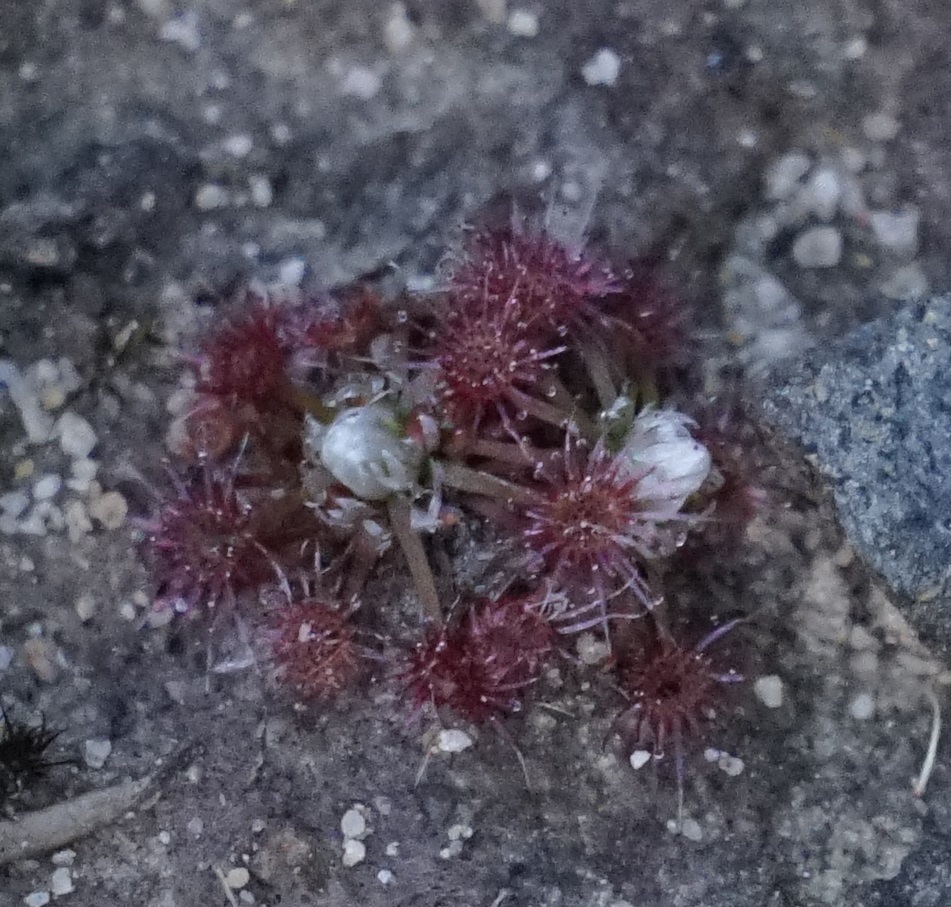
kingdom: Plantae
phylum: Tracheophyta
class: Magnoliopsida
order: Caryophyllales
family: Droseraceae
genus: Drosera
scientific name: Drosera pygmaea
